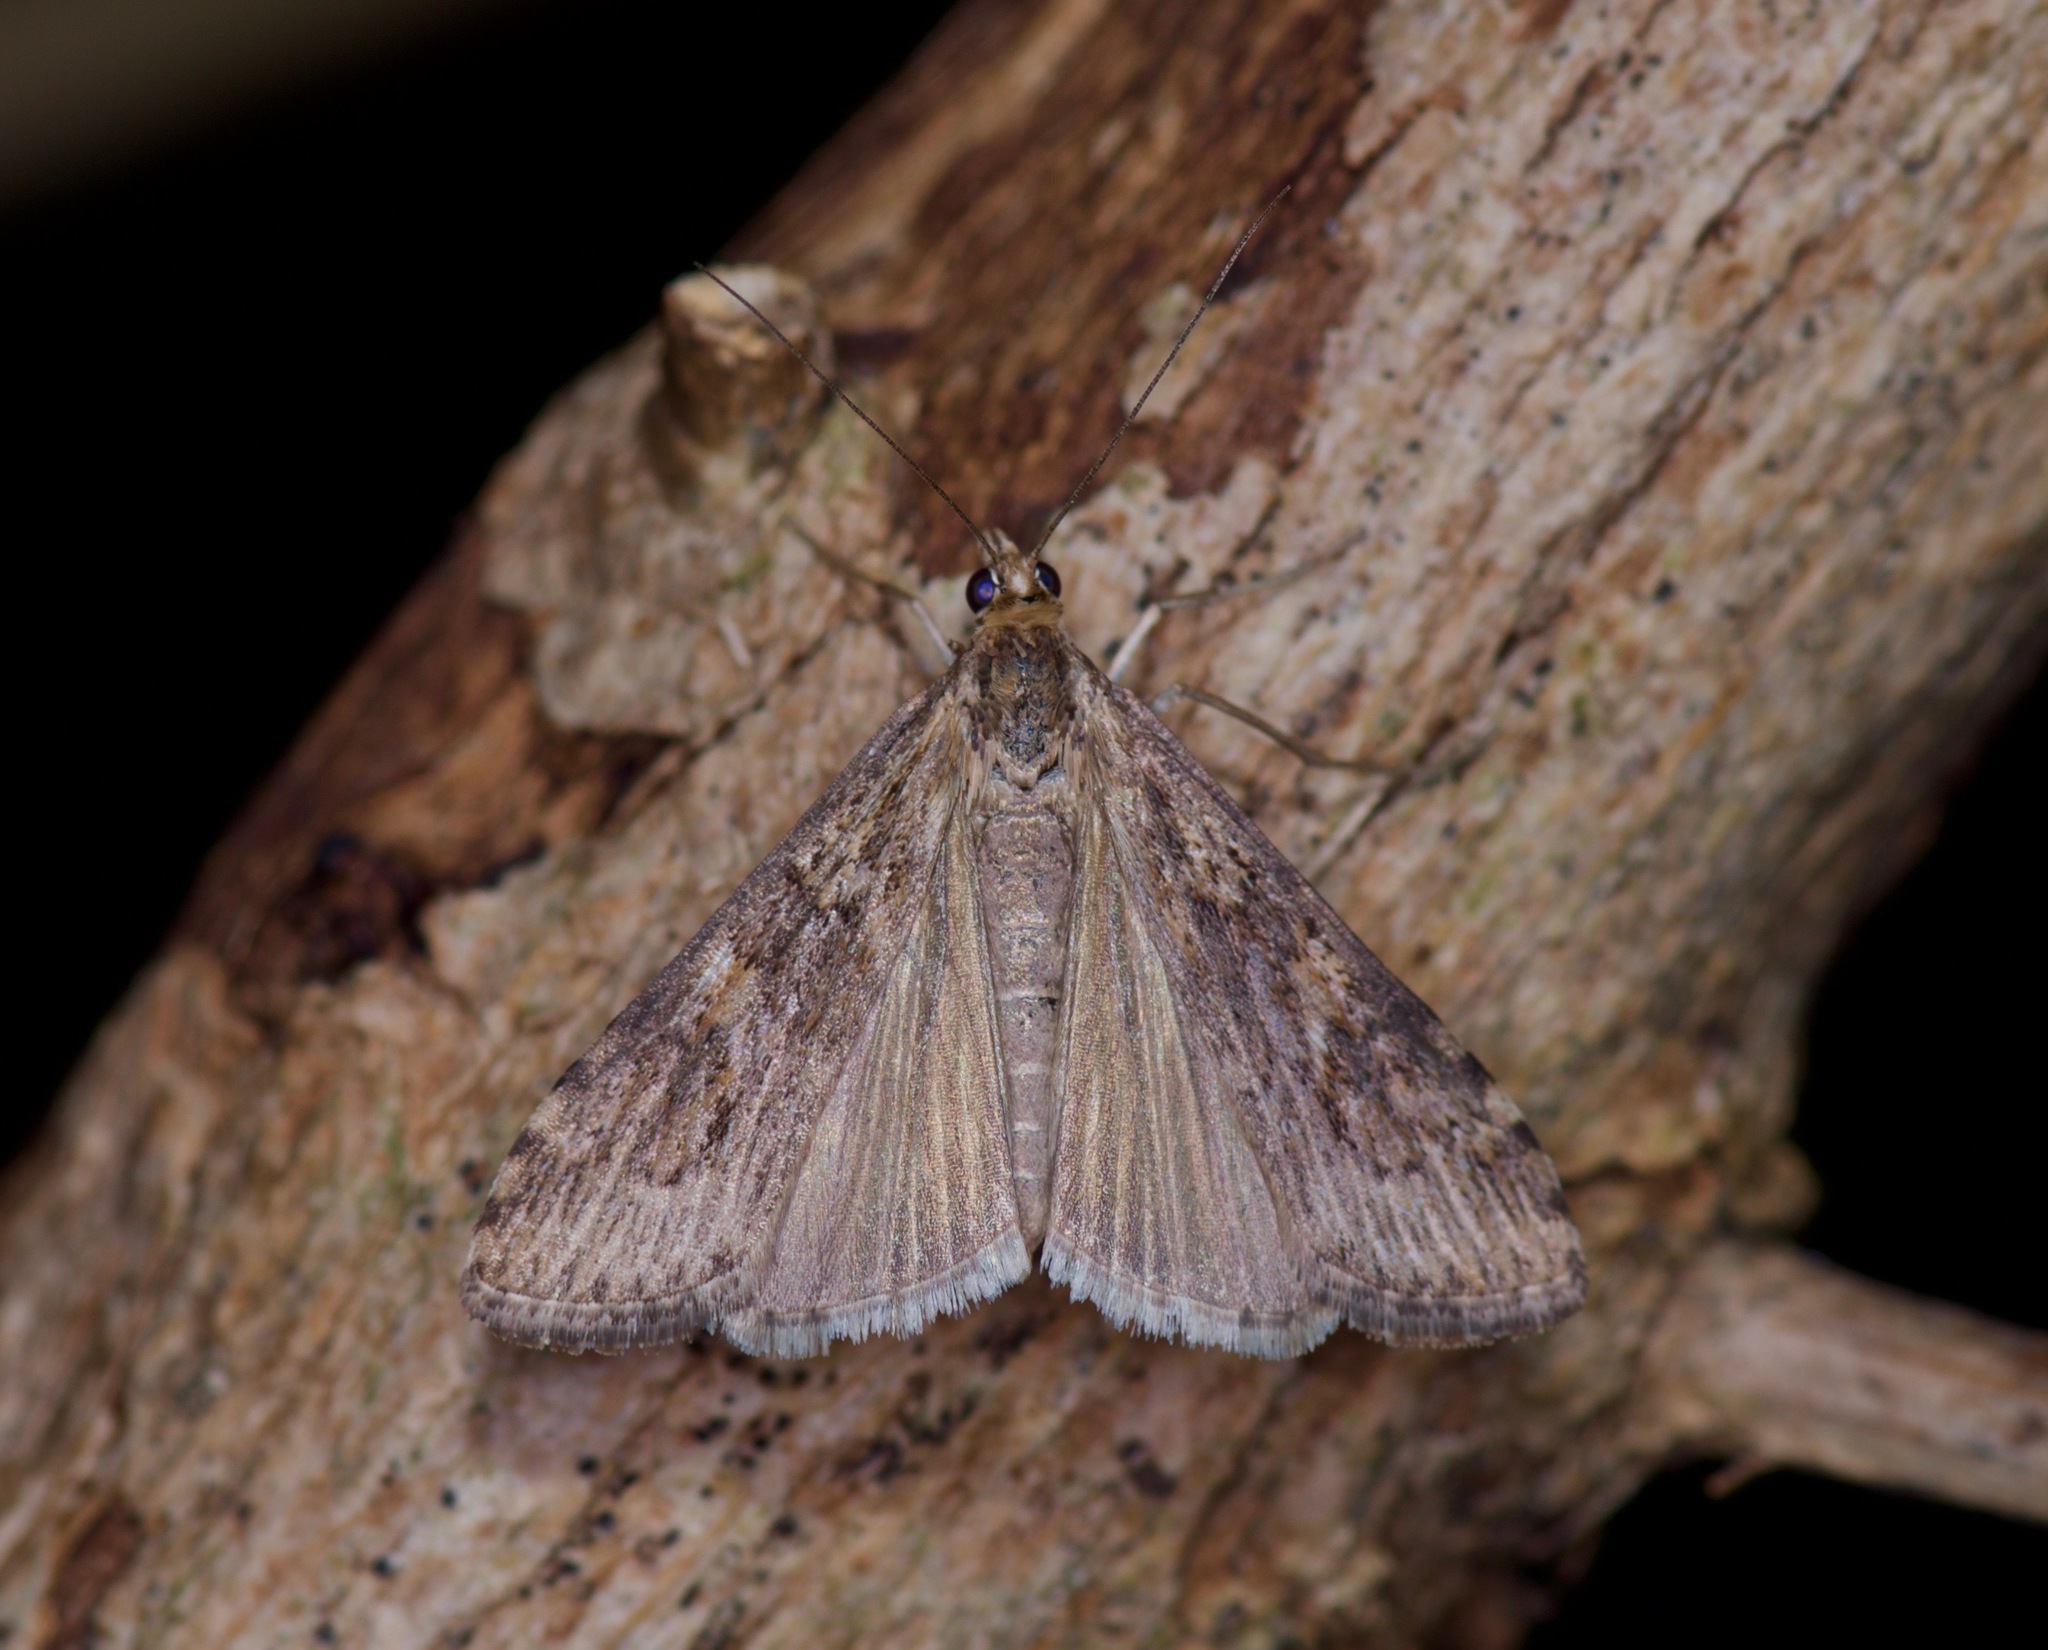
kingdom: Animalia
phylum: Arthropoda
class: Insecta
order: Lepidoptera
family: Crambidae
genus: Nomophila
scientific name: Nomophila nearctica
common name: American rush veneer
